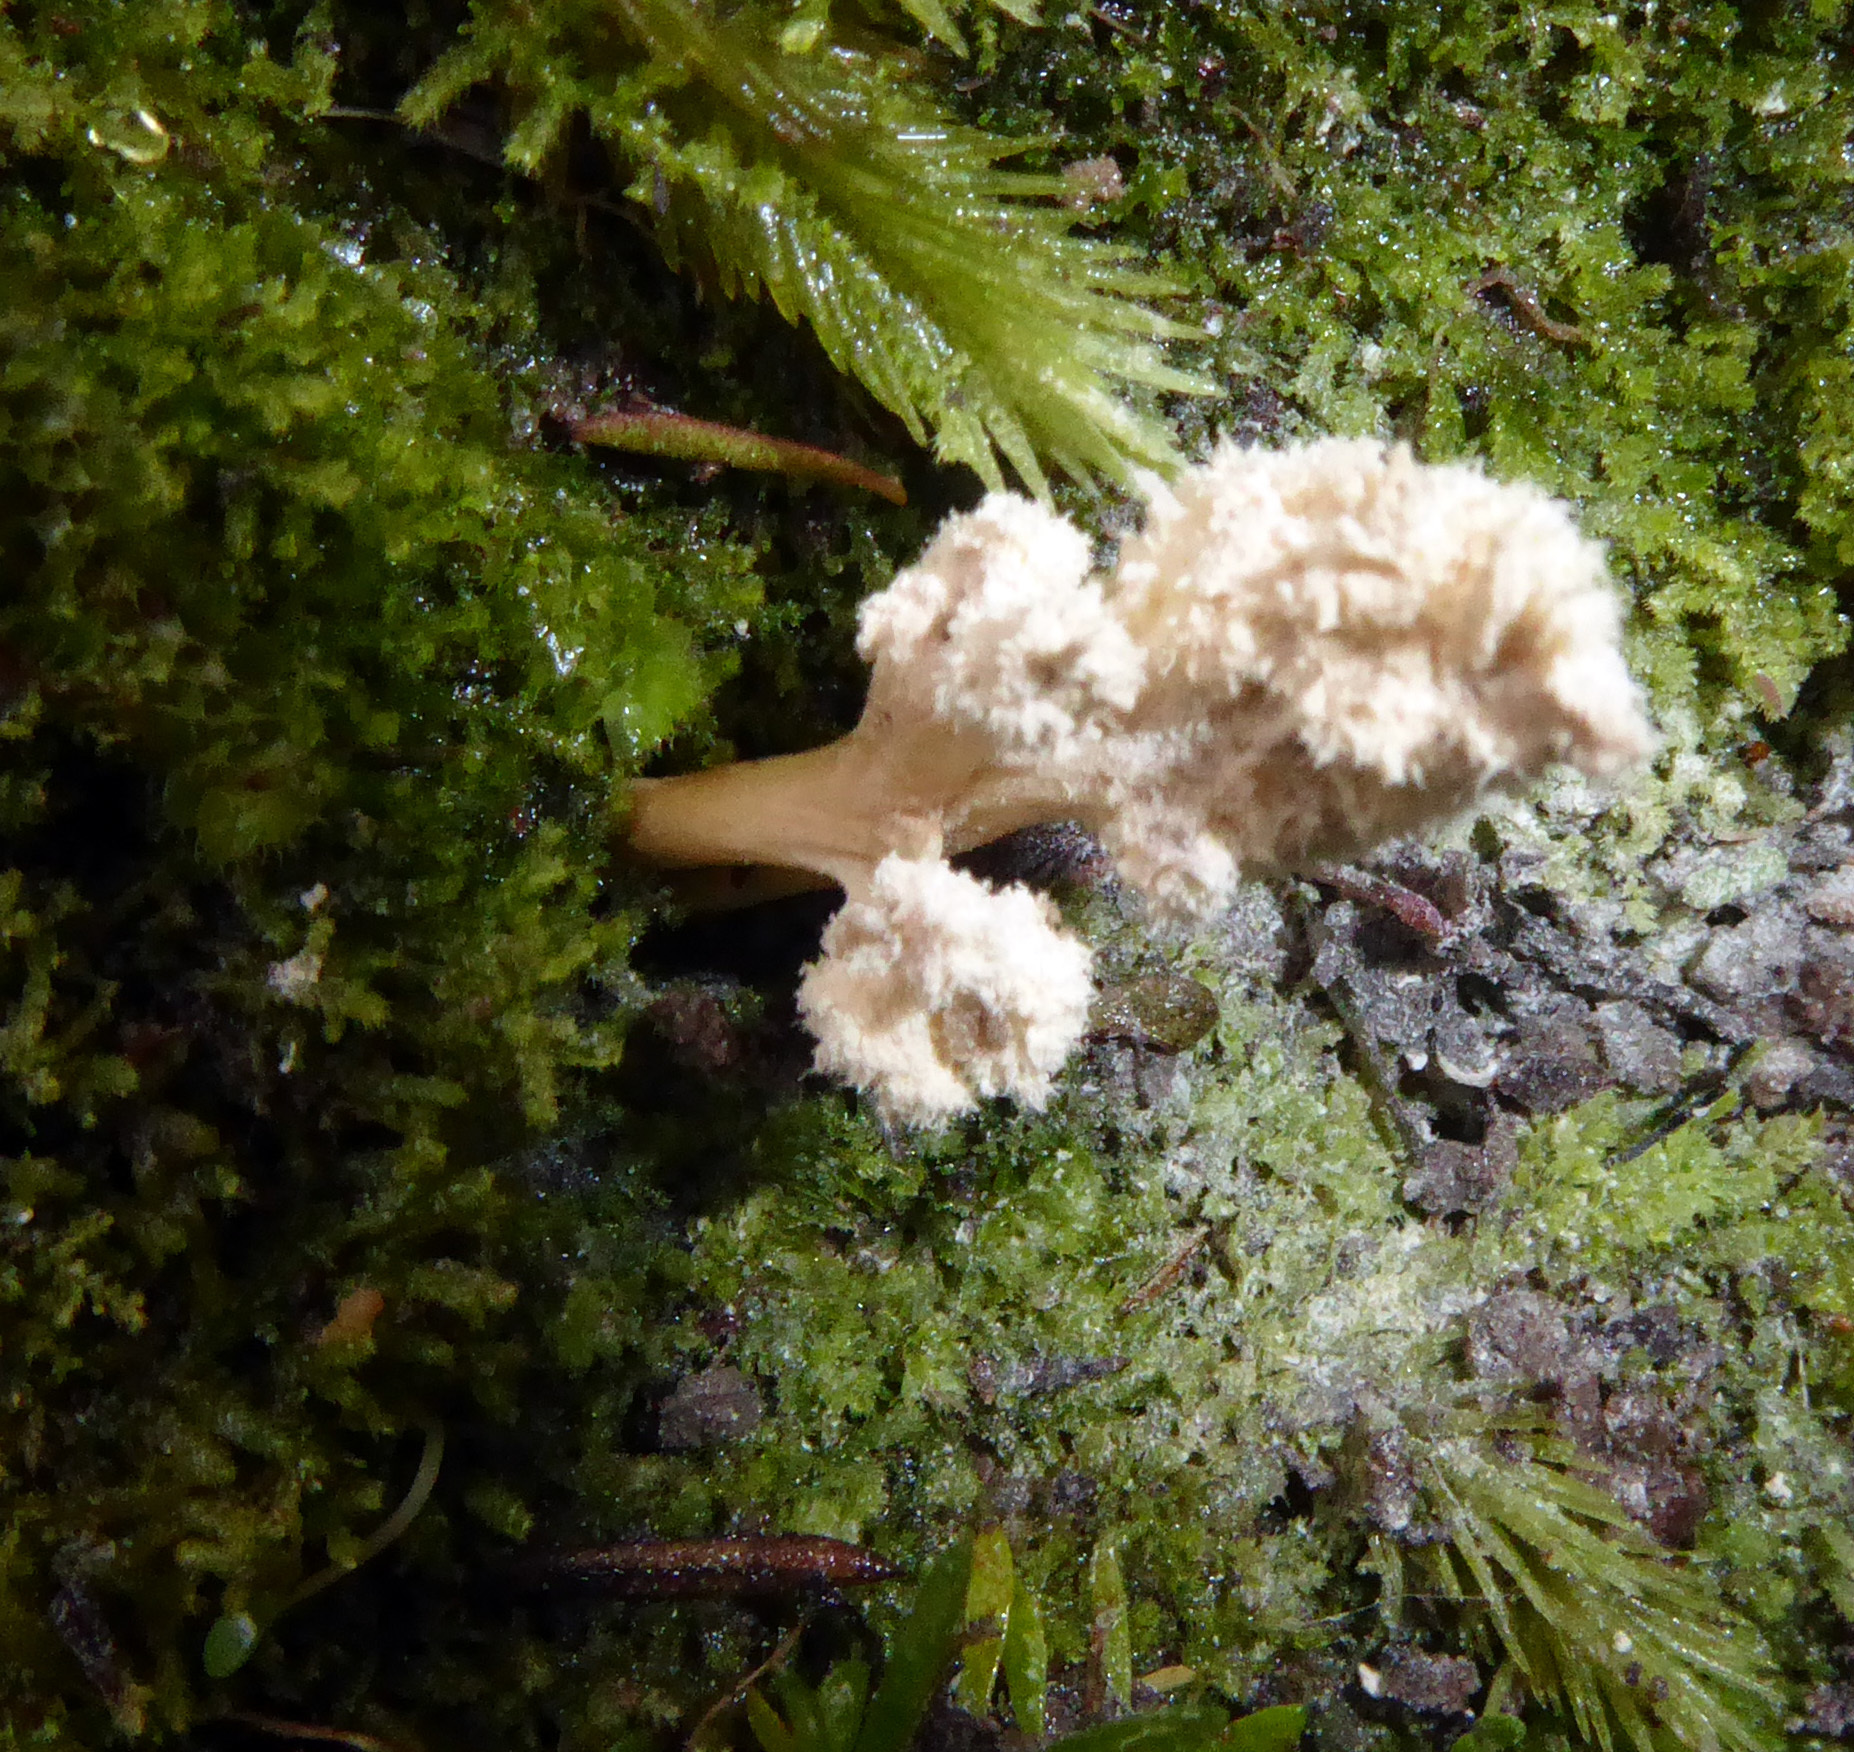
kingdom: Fungi
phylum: Ascomycota
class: Sordariomycetes
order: Hypocreales
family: Cordycipitaceae
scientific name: Cordycipitaceae
